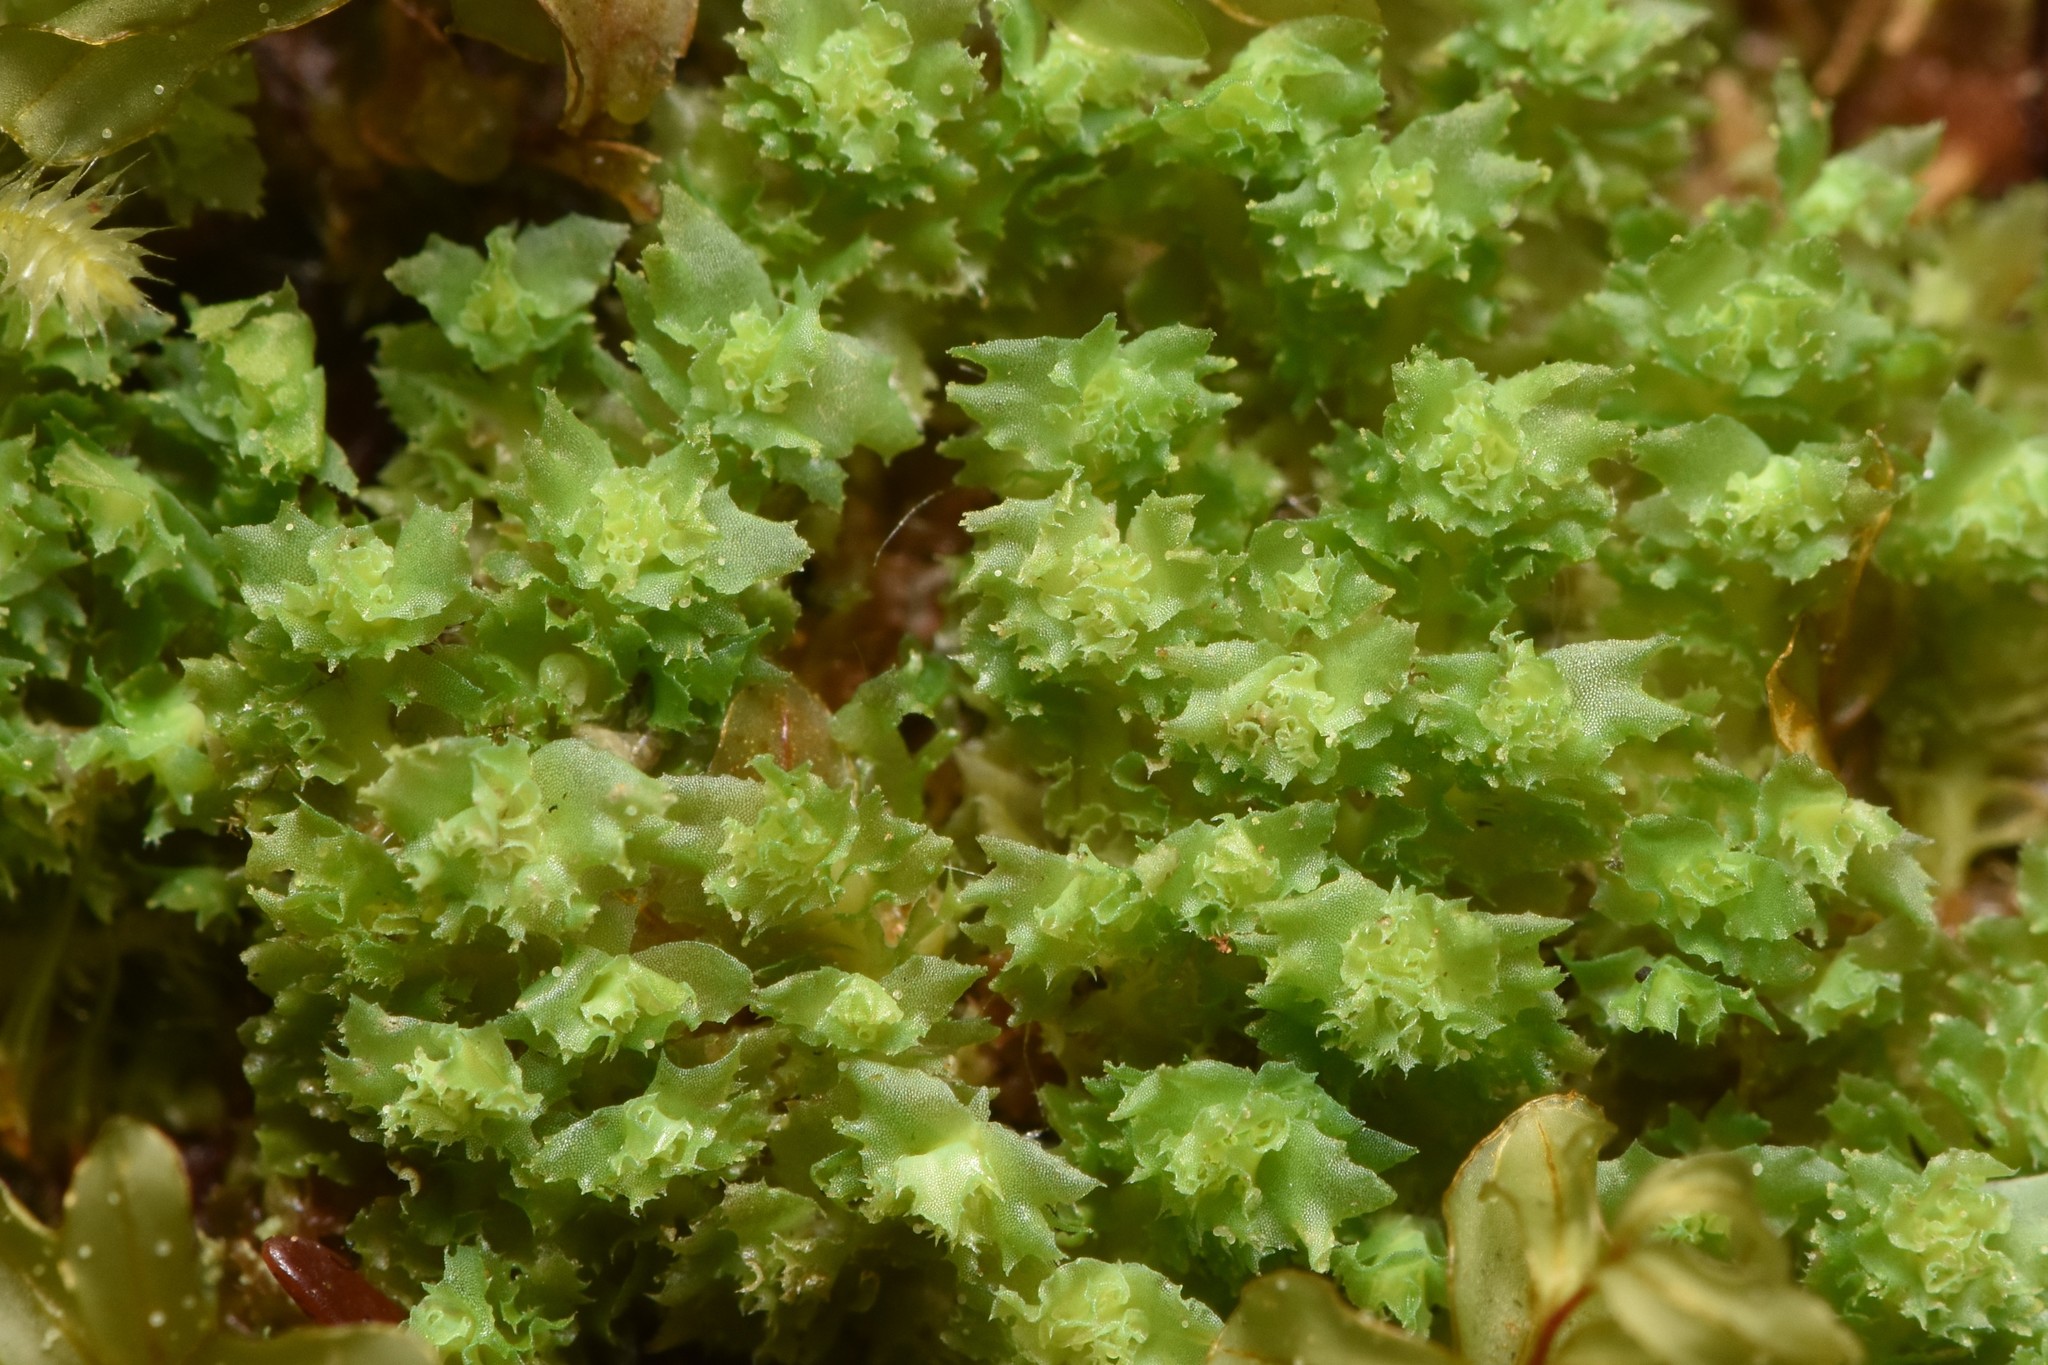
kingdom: Plantae
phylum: Marchantiophyta
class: Jungermanniopsida
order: Jungermanniales
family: Scapaniaceae
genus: Schistochilopsis
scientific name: Schistochilopsis incisa
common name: Jagged notchwort
